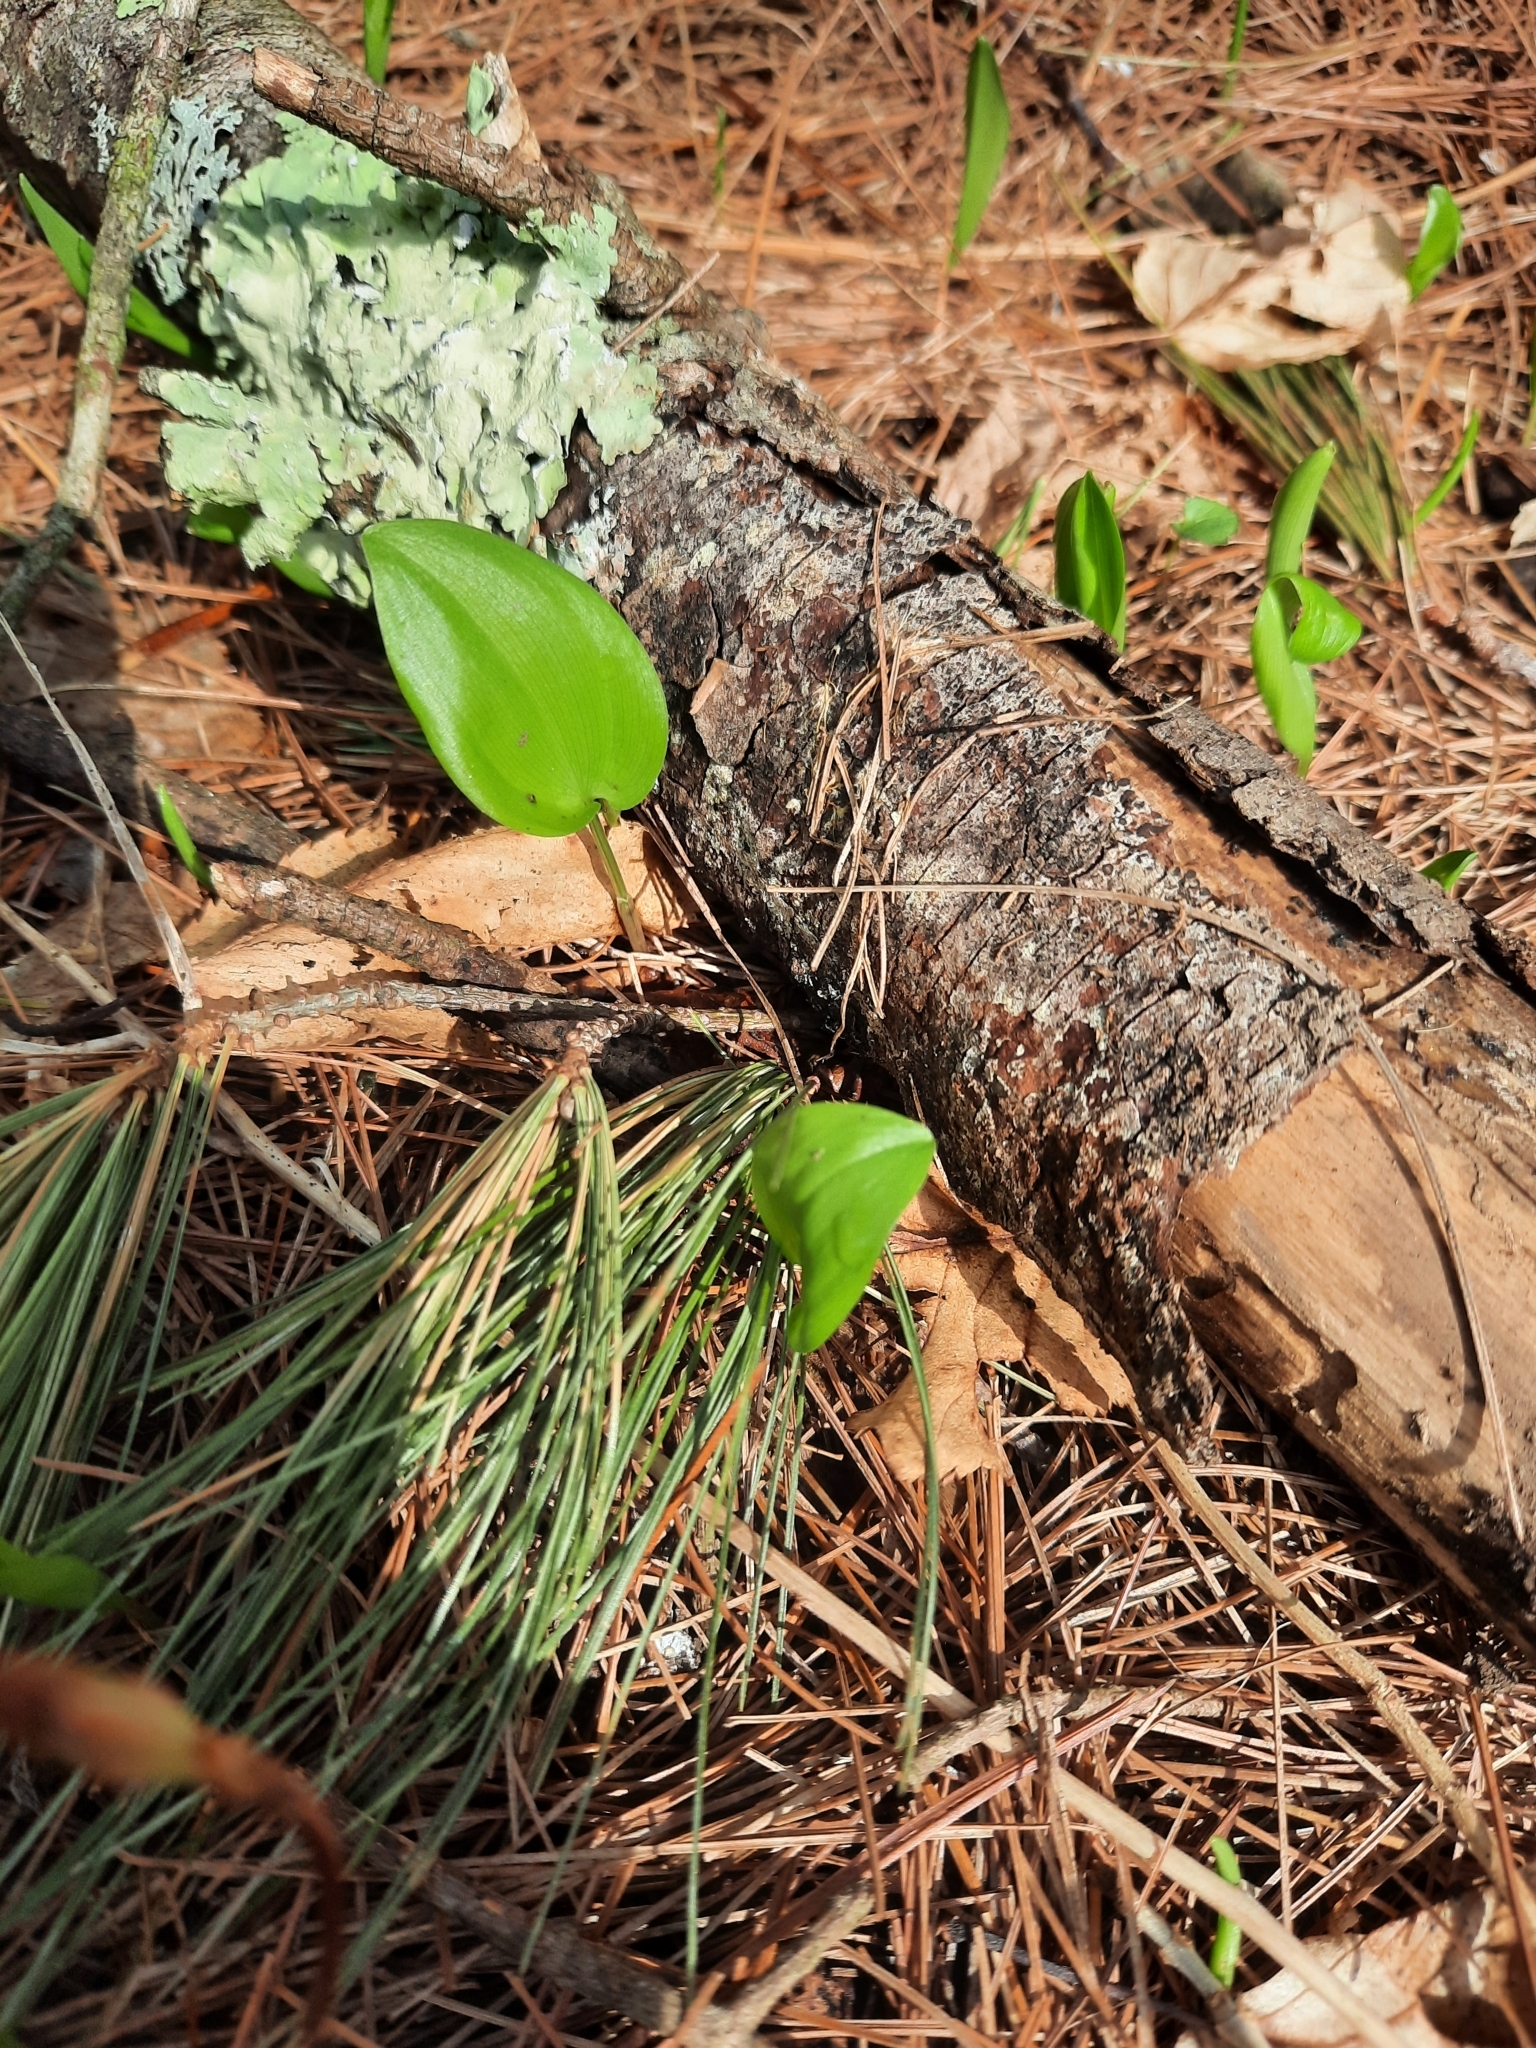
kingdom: Plantae
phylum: Tracheophyta
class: Liliopsida
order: Asparagales
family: Asparagaceae
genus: Maianthemum
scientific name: Maianthemum canadense
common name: False lily-of-the-valley
